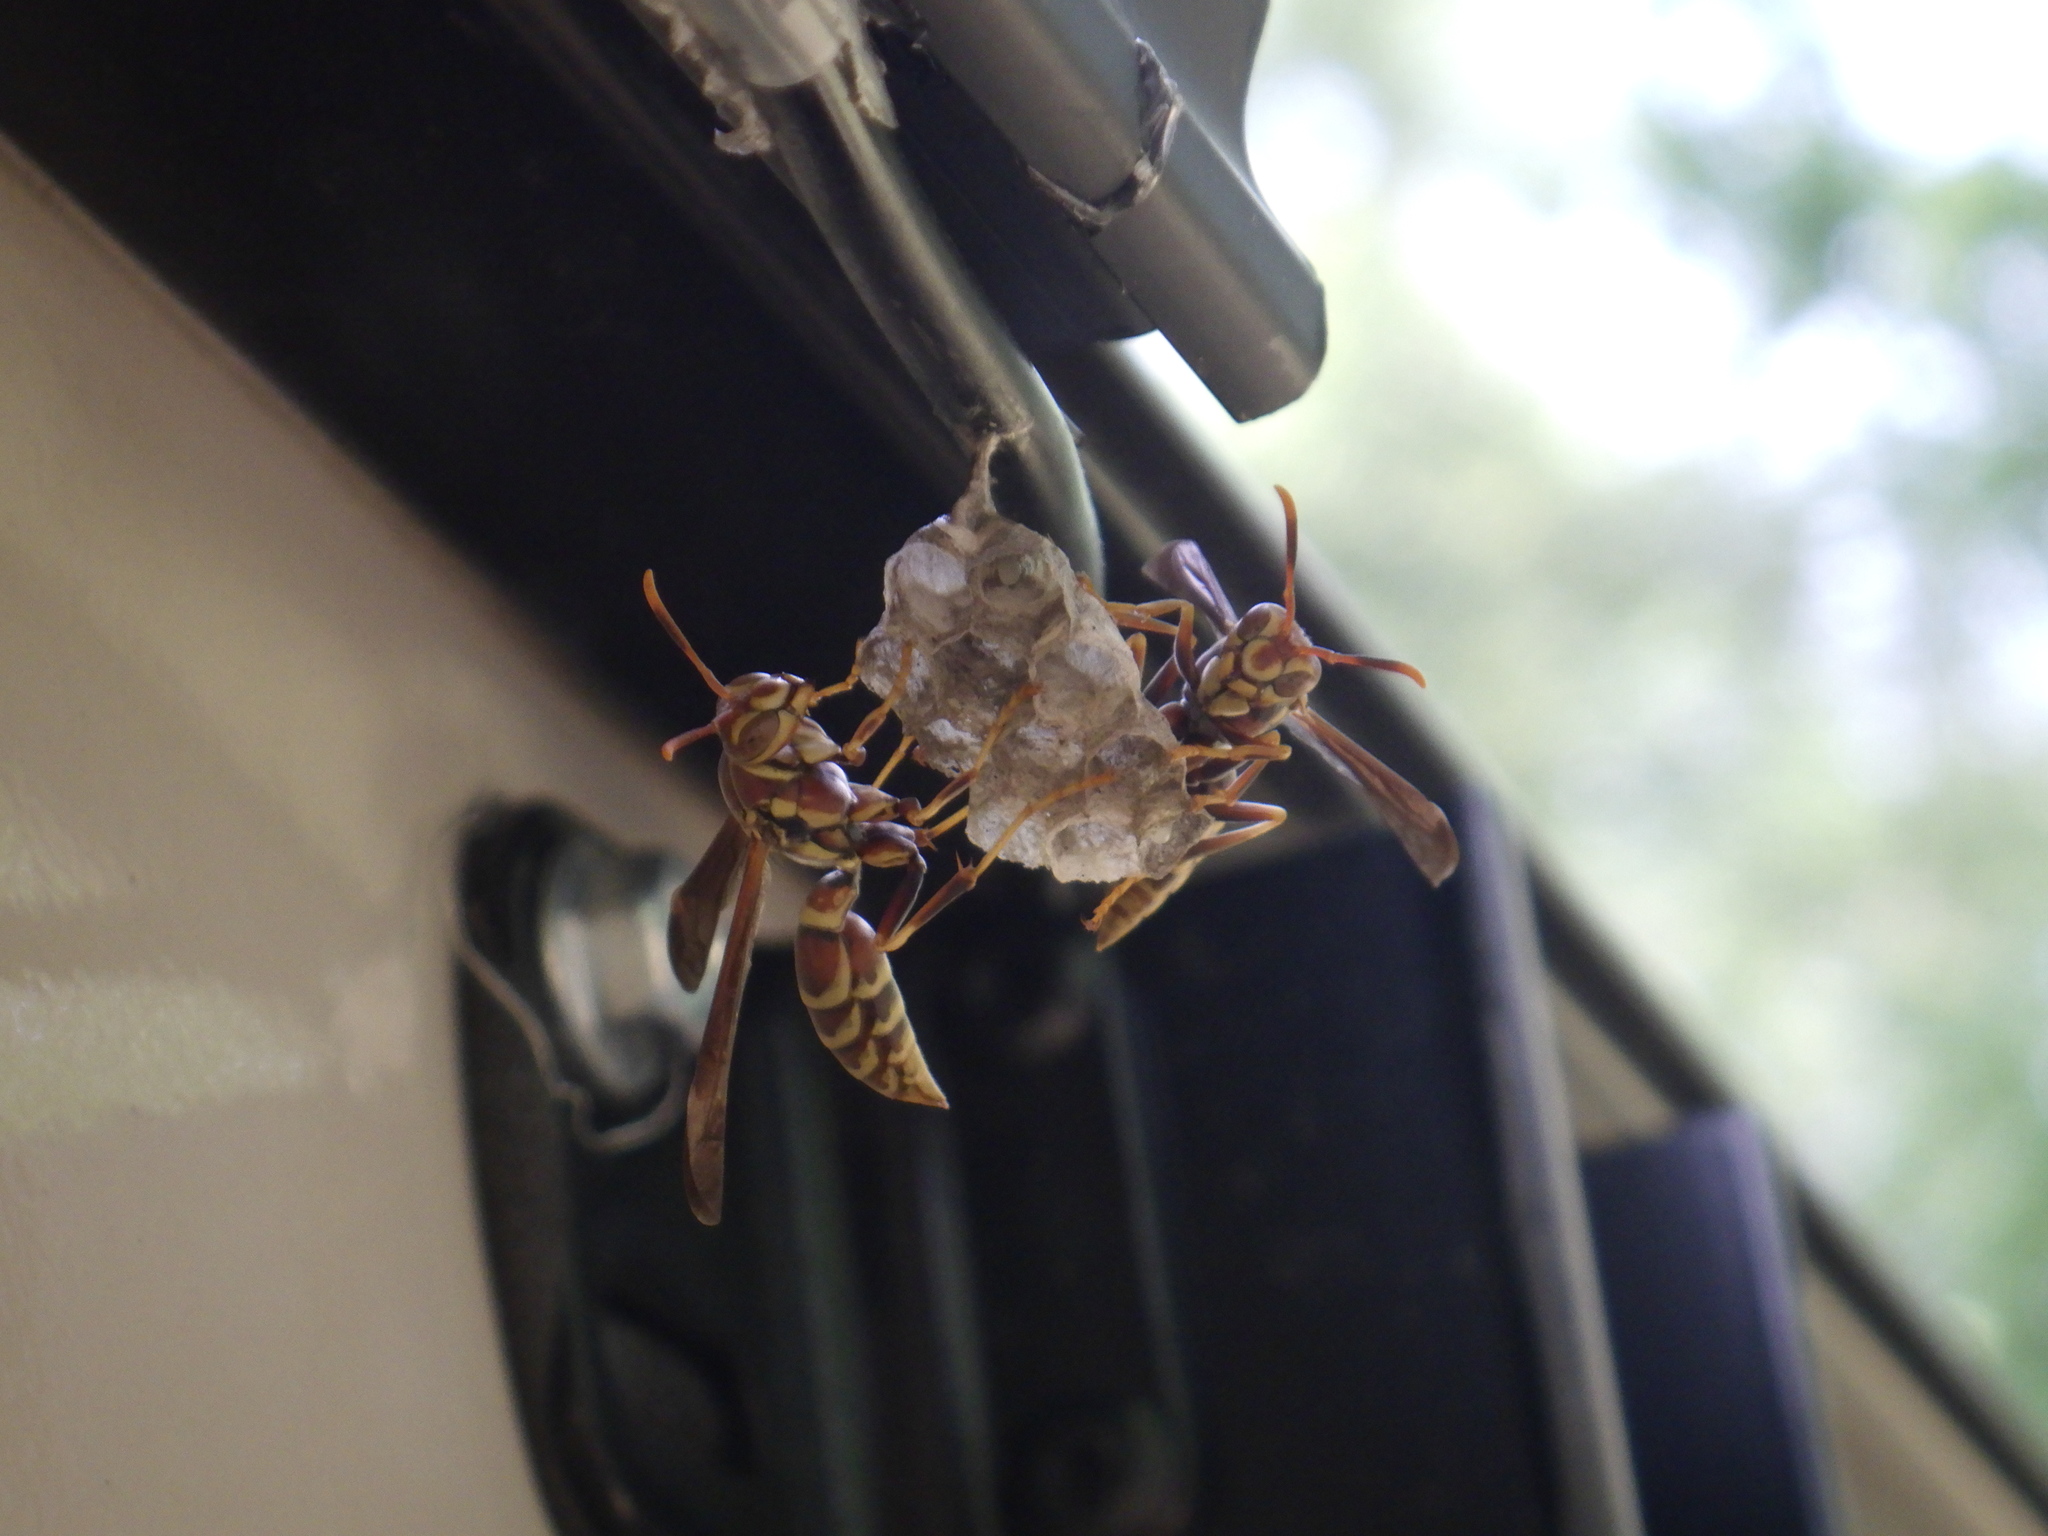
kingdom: Animalia
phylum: Arthropoda
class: Insecta
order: Hymenoptera
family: Eumenidae
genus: Polistes
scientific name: Polistes exclamans
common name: Paper wasp
